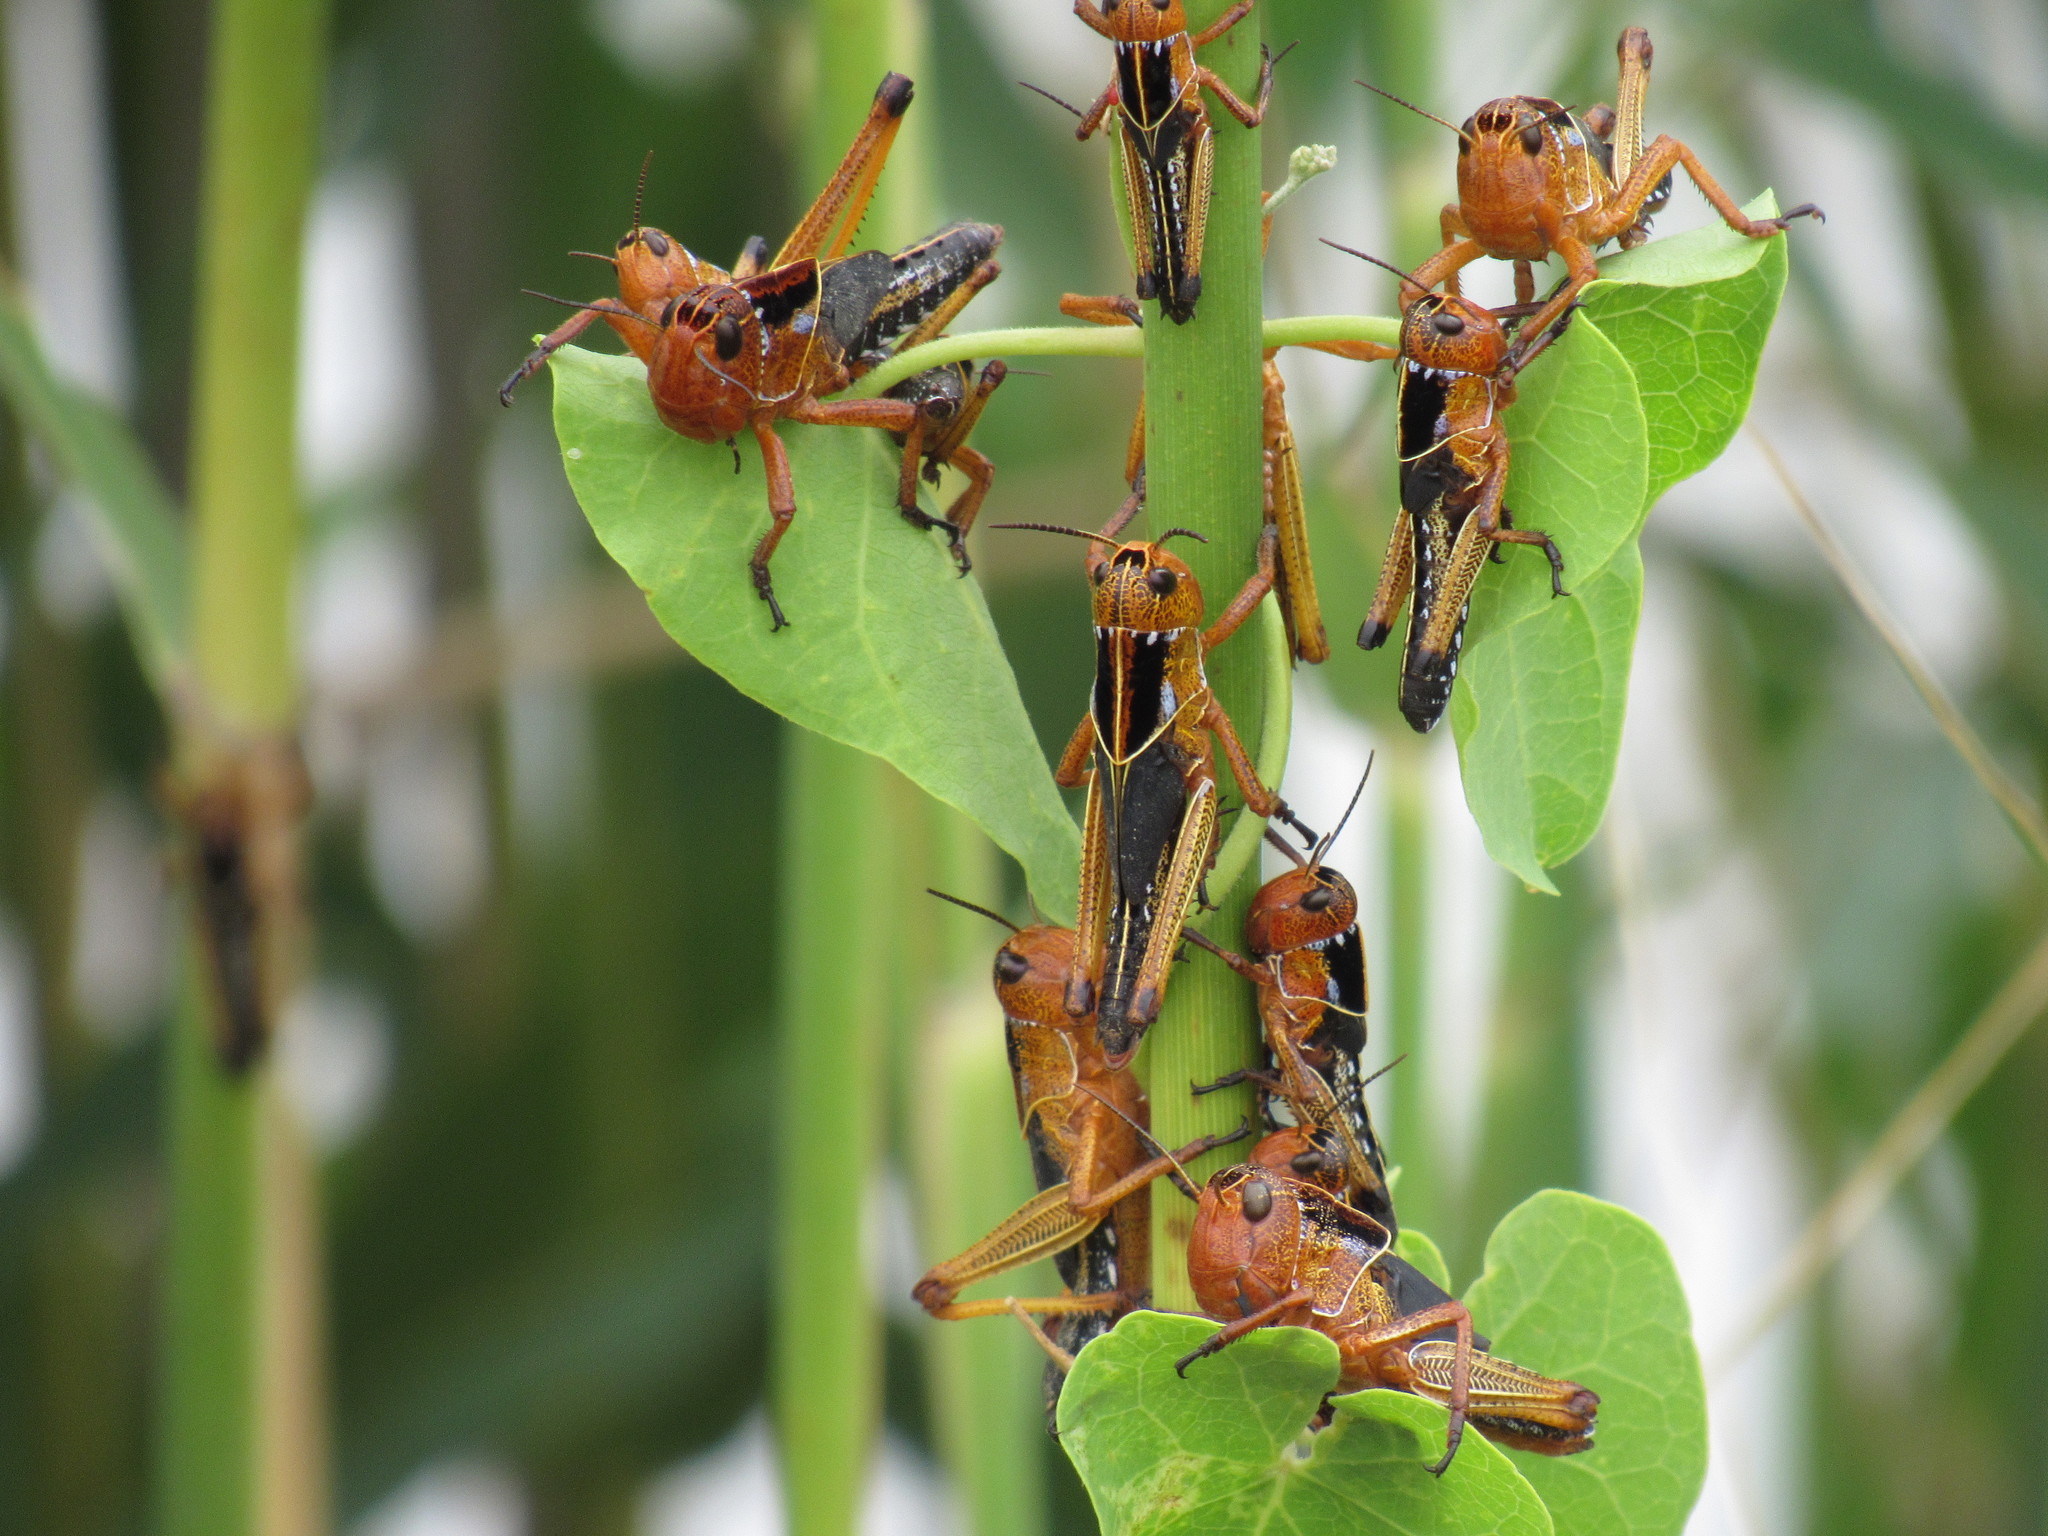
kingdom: Animalia
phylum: Arthropoda
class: Insecta
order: Orthoptera
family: Acrididae
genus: Locusta
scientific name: Locusta migratoria
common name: Migratory locust
